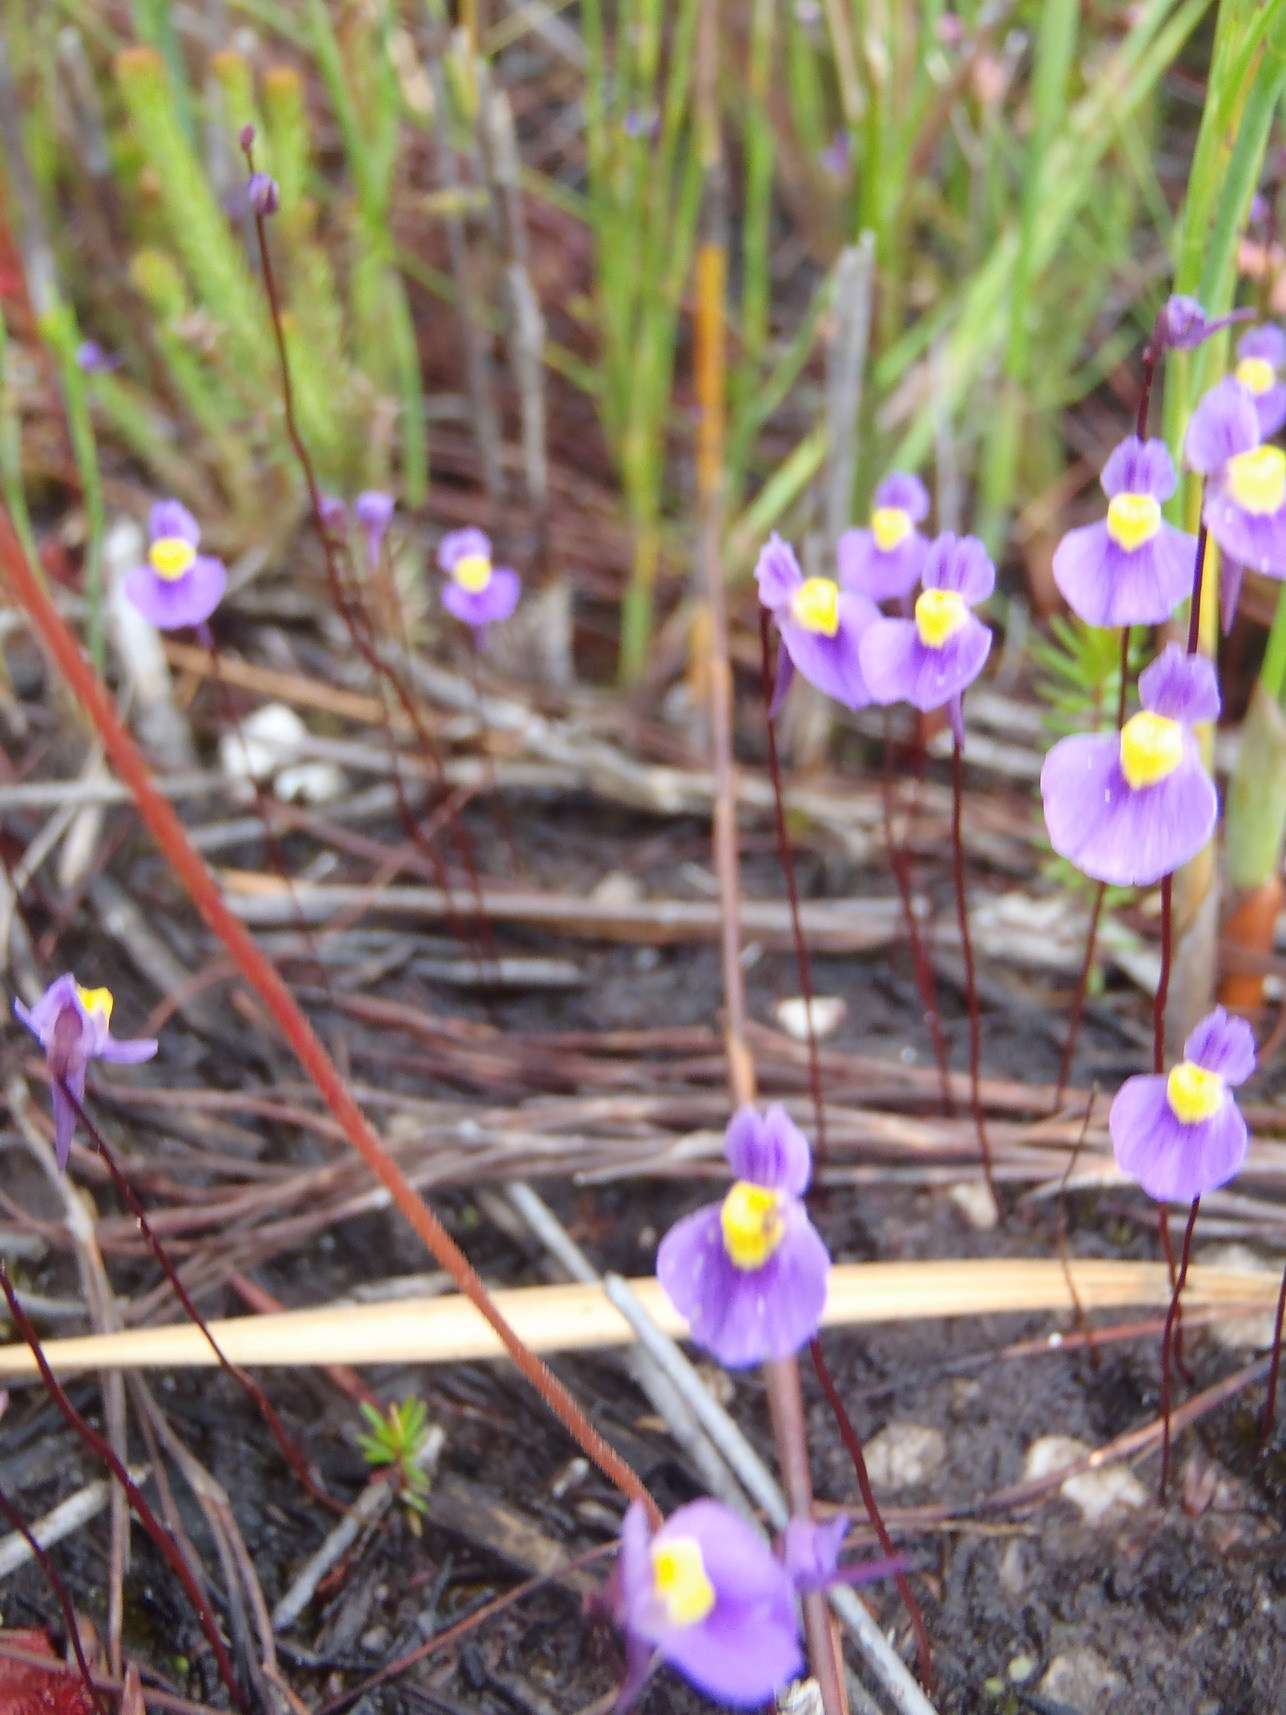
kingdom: Plantae
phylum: Tracheophyta
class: Magnoliopsida
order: Lamiales
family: Lentibulariaceae
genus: Utricularia
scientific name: Utricularia bisquamata
